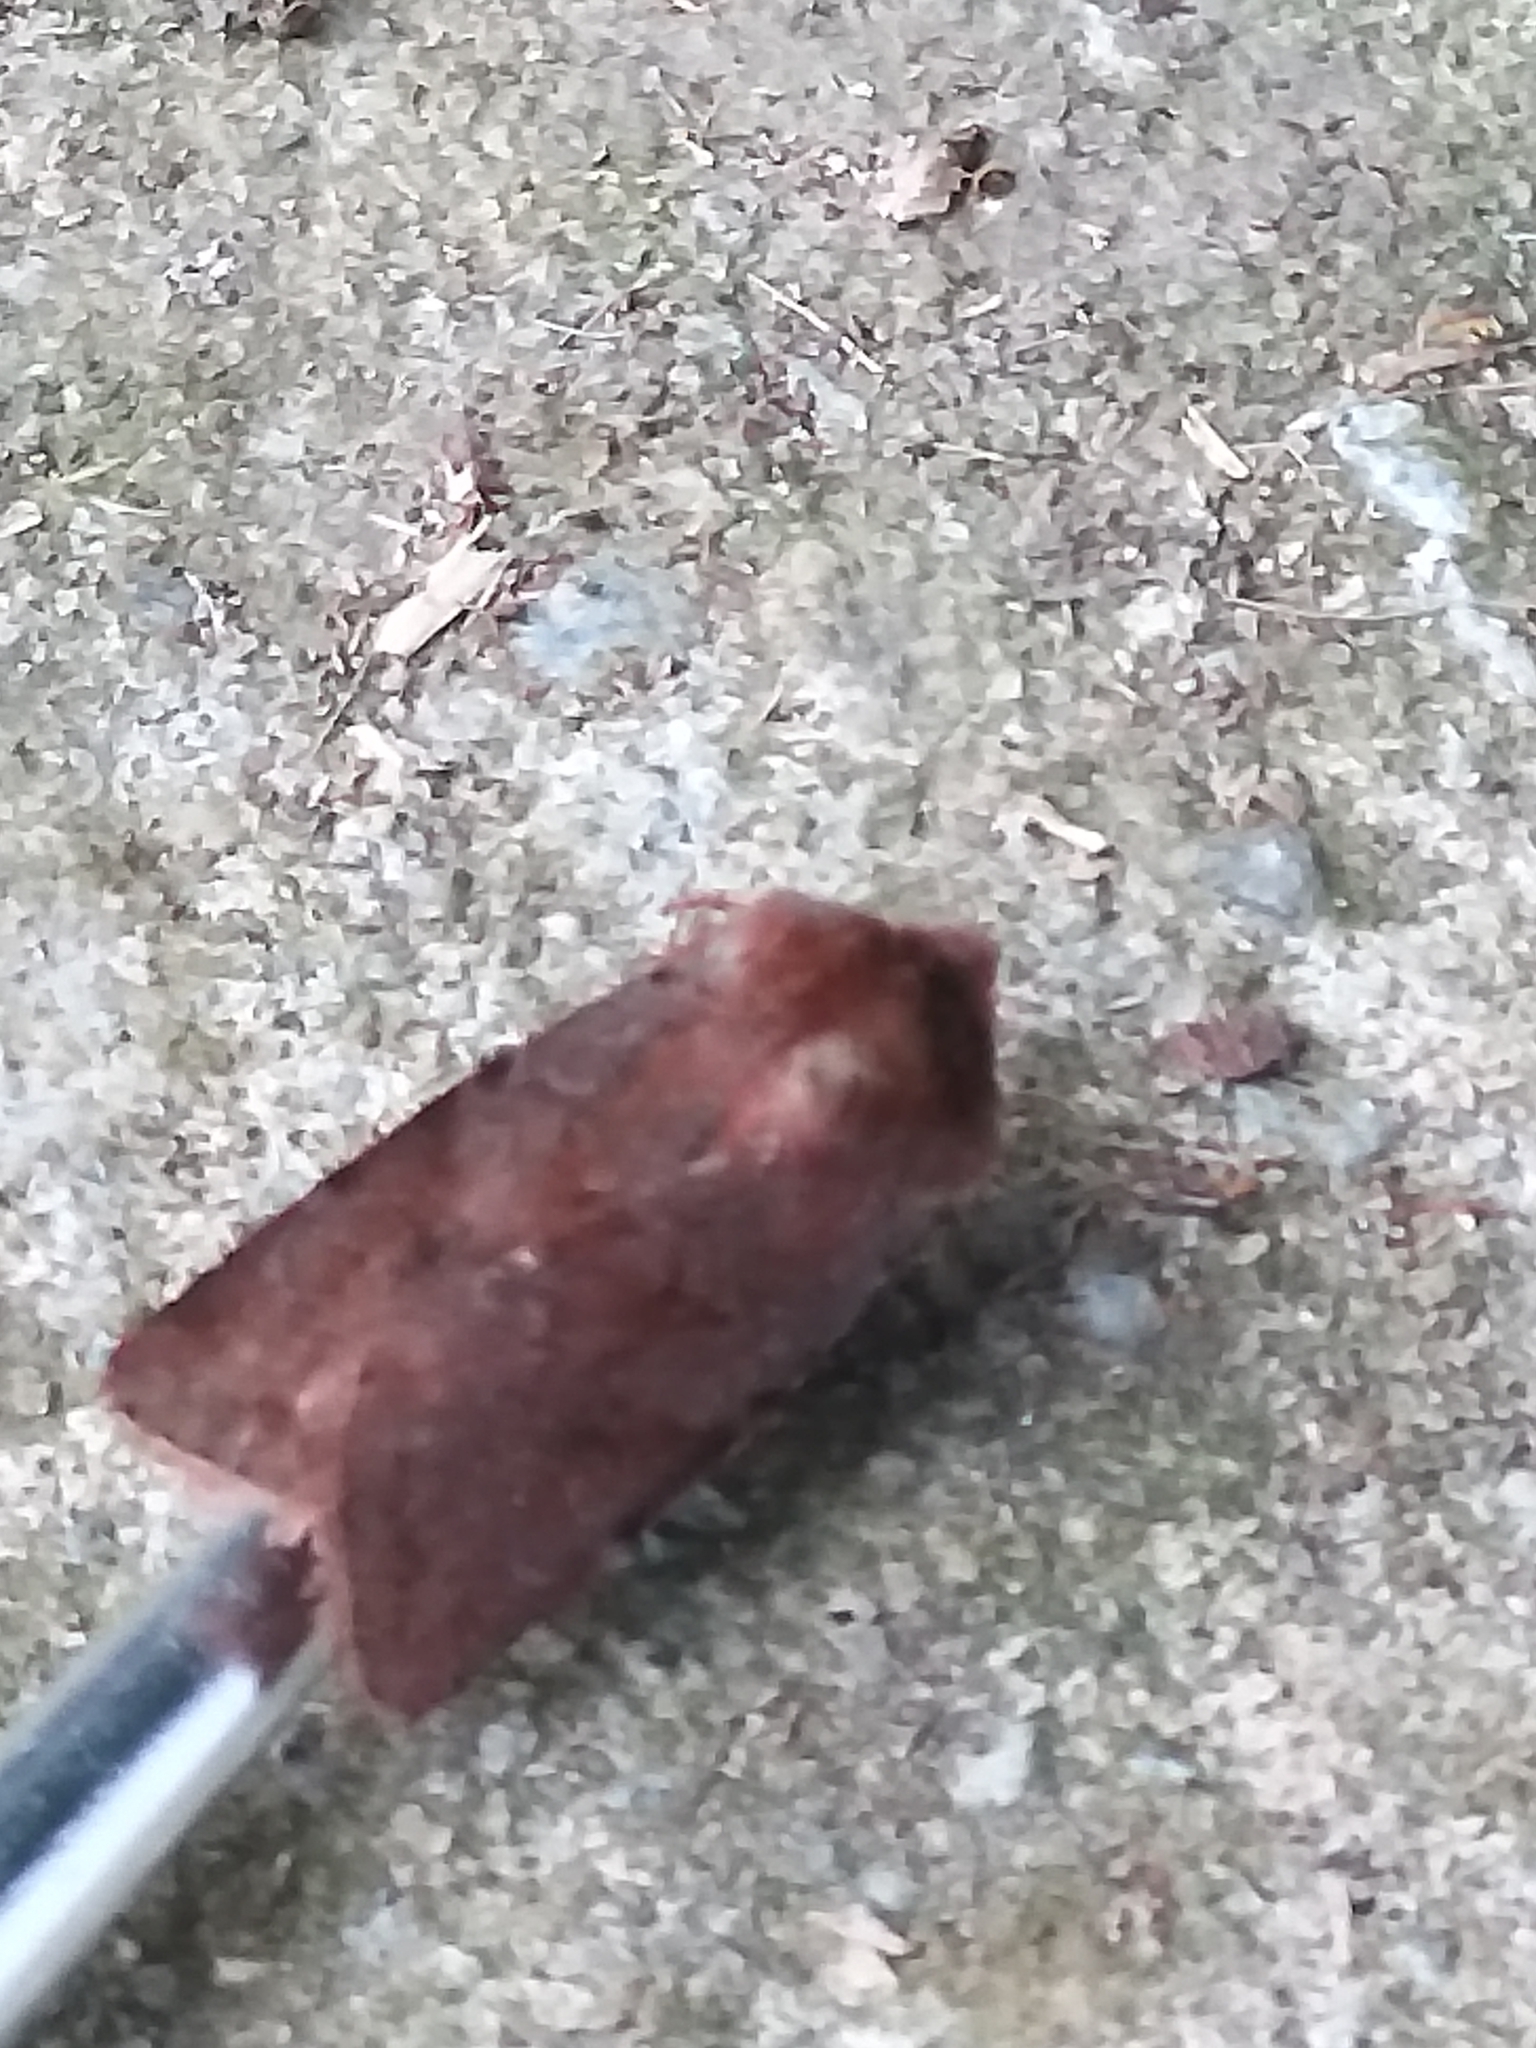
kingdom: Animalia
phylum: Arthropoda
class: Insecta
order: Lepidoptera
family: Noctuidae
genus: Cerastis
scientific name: Cerastis rubricosa
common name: Red chestnut
